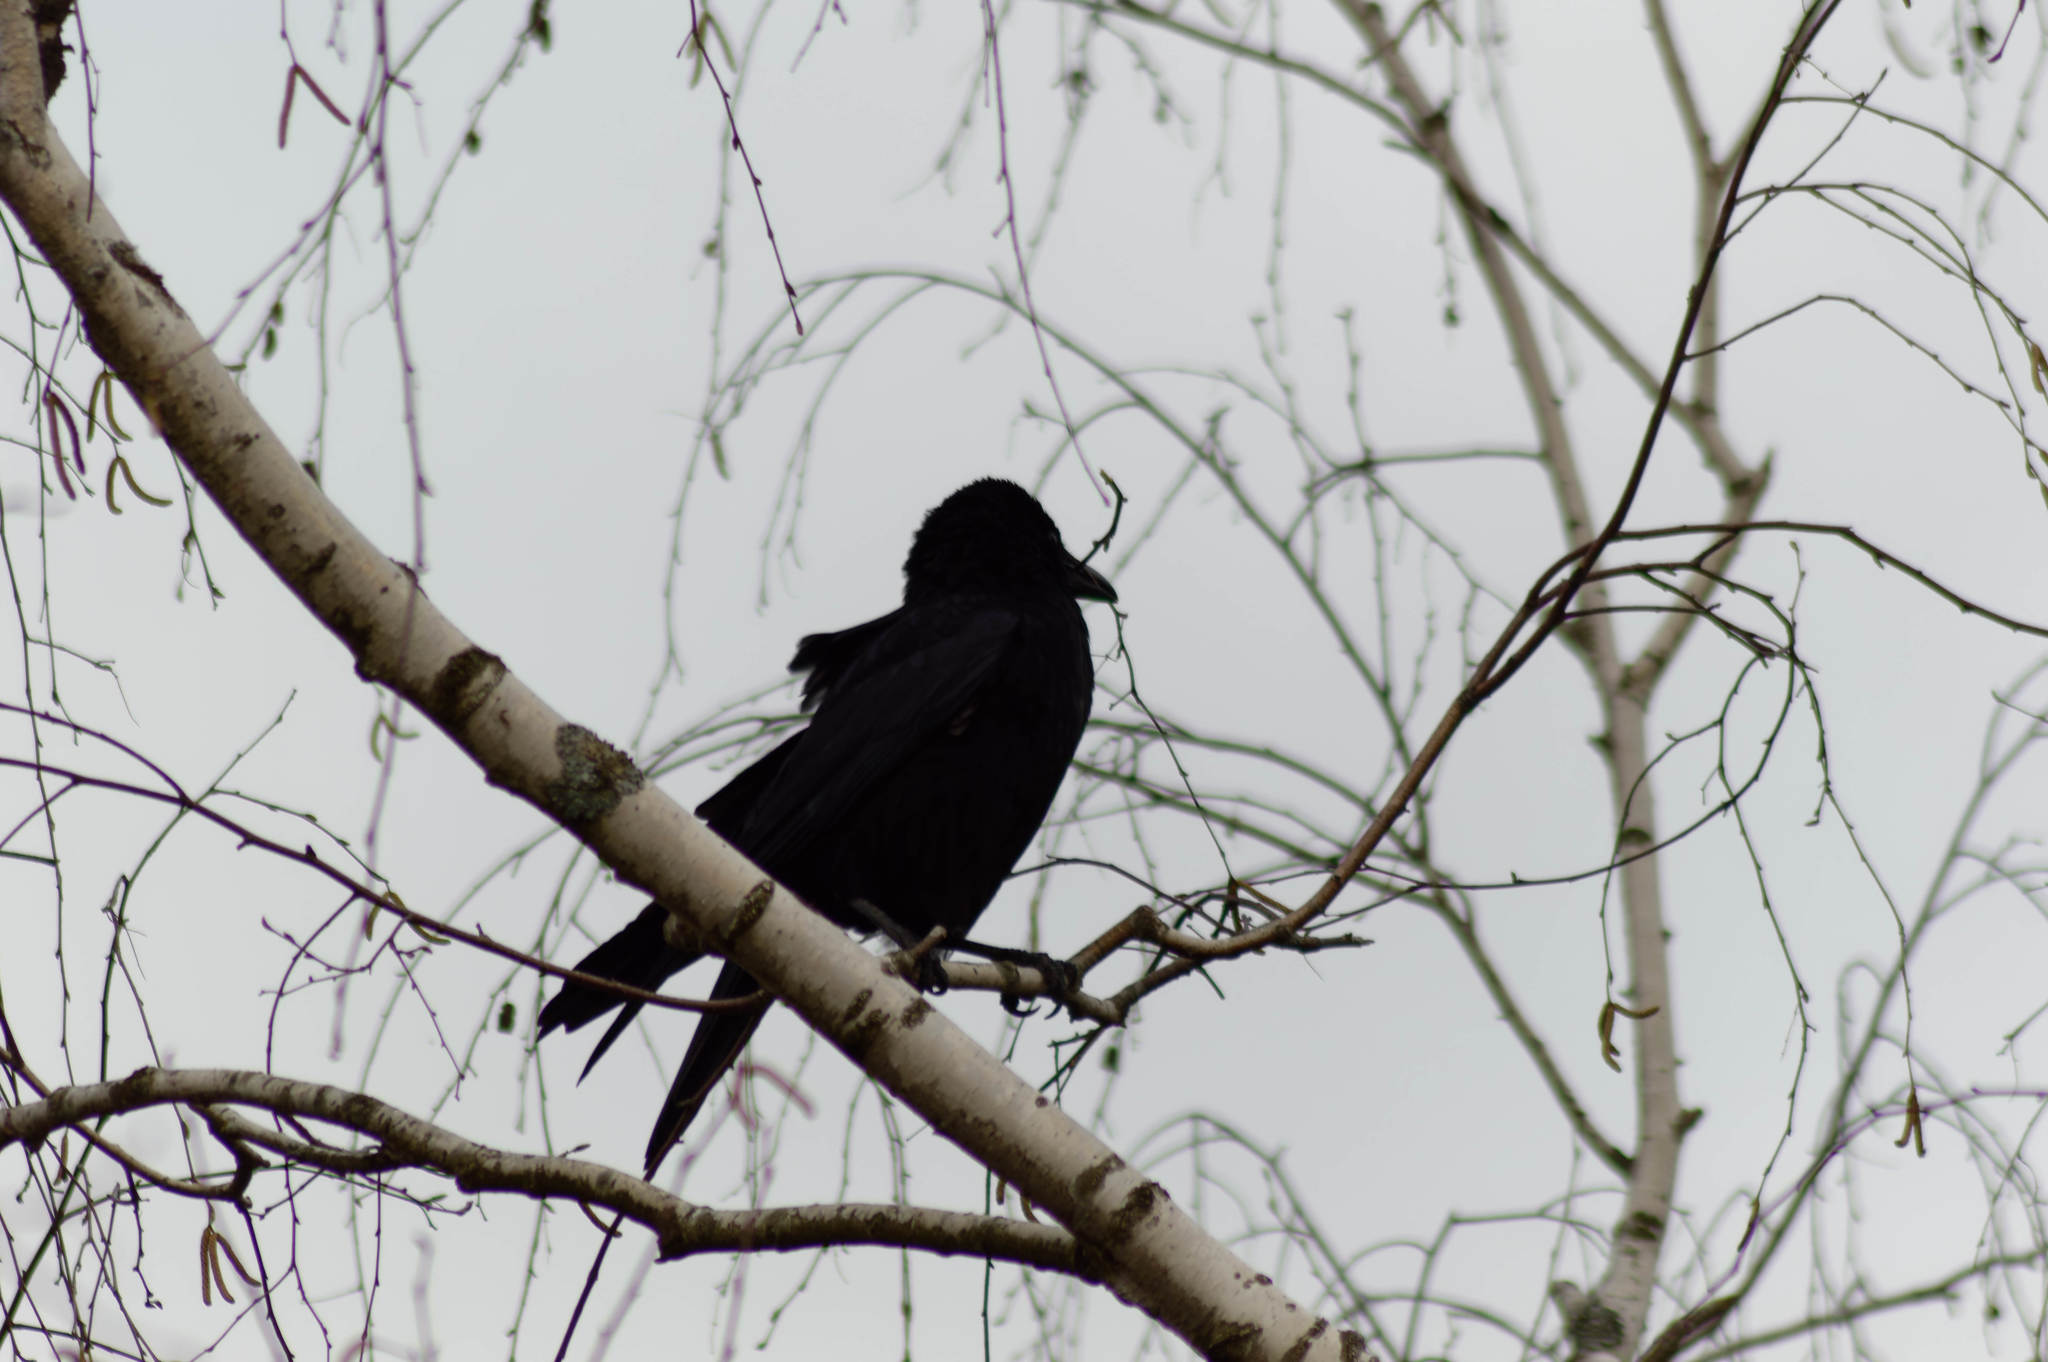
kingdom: Animalia
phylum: Chordata
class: Aves
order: Passeriformes
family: Corvidae
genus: Corvus
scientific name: Corvus corone
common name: Carrion crow
